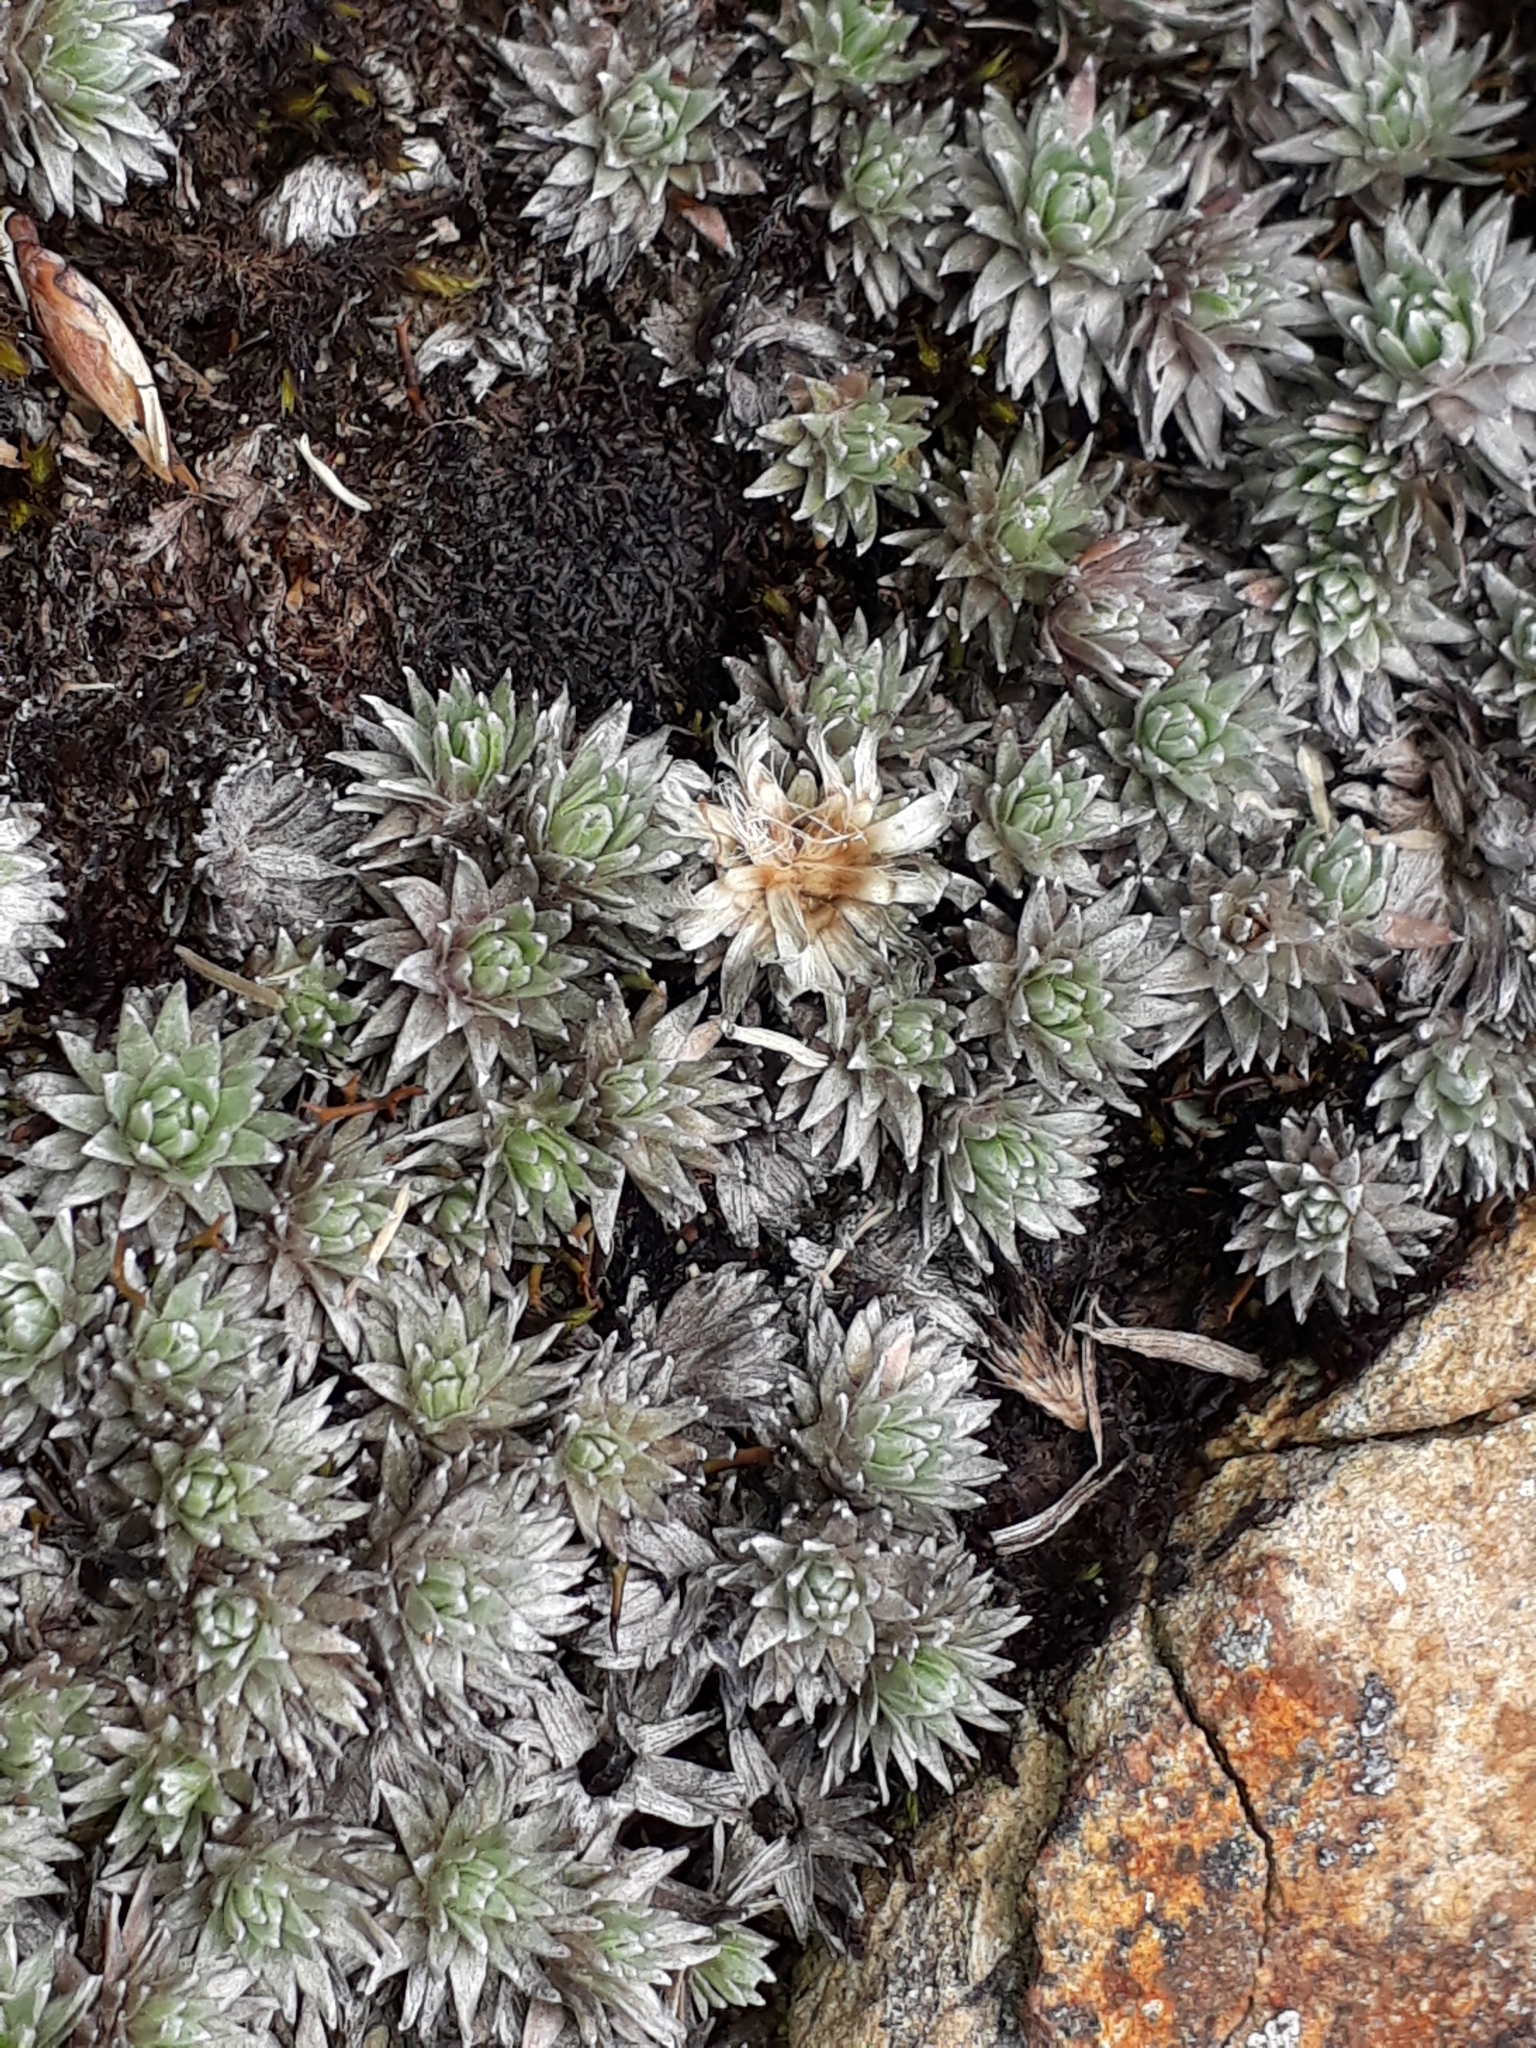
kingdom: Plantae
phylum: Tracheophyta
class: Magnoliopsida
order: Asterales
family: Asteraceae
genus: Raoulia
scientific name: Raoulia grandiflora
